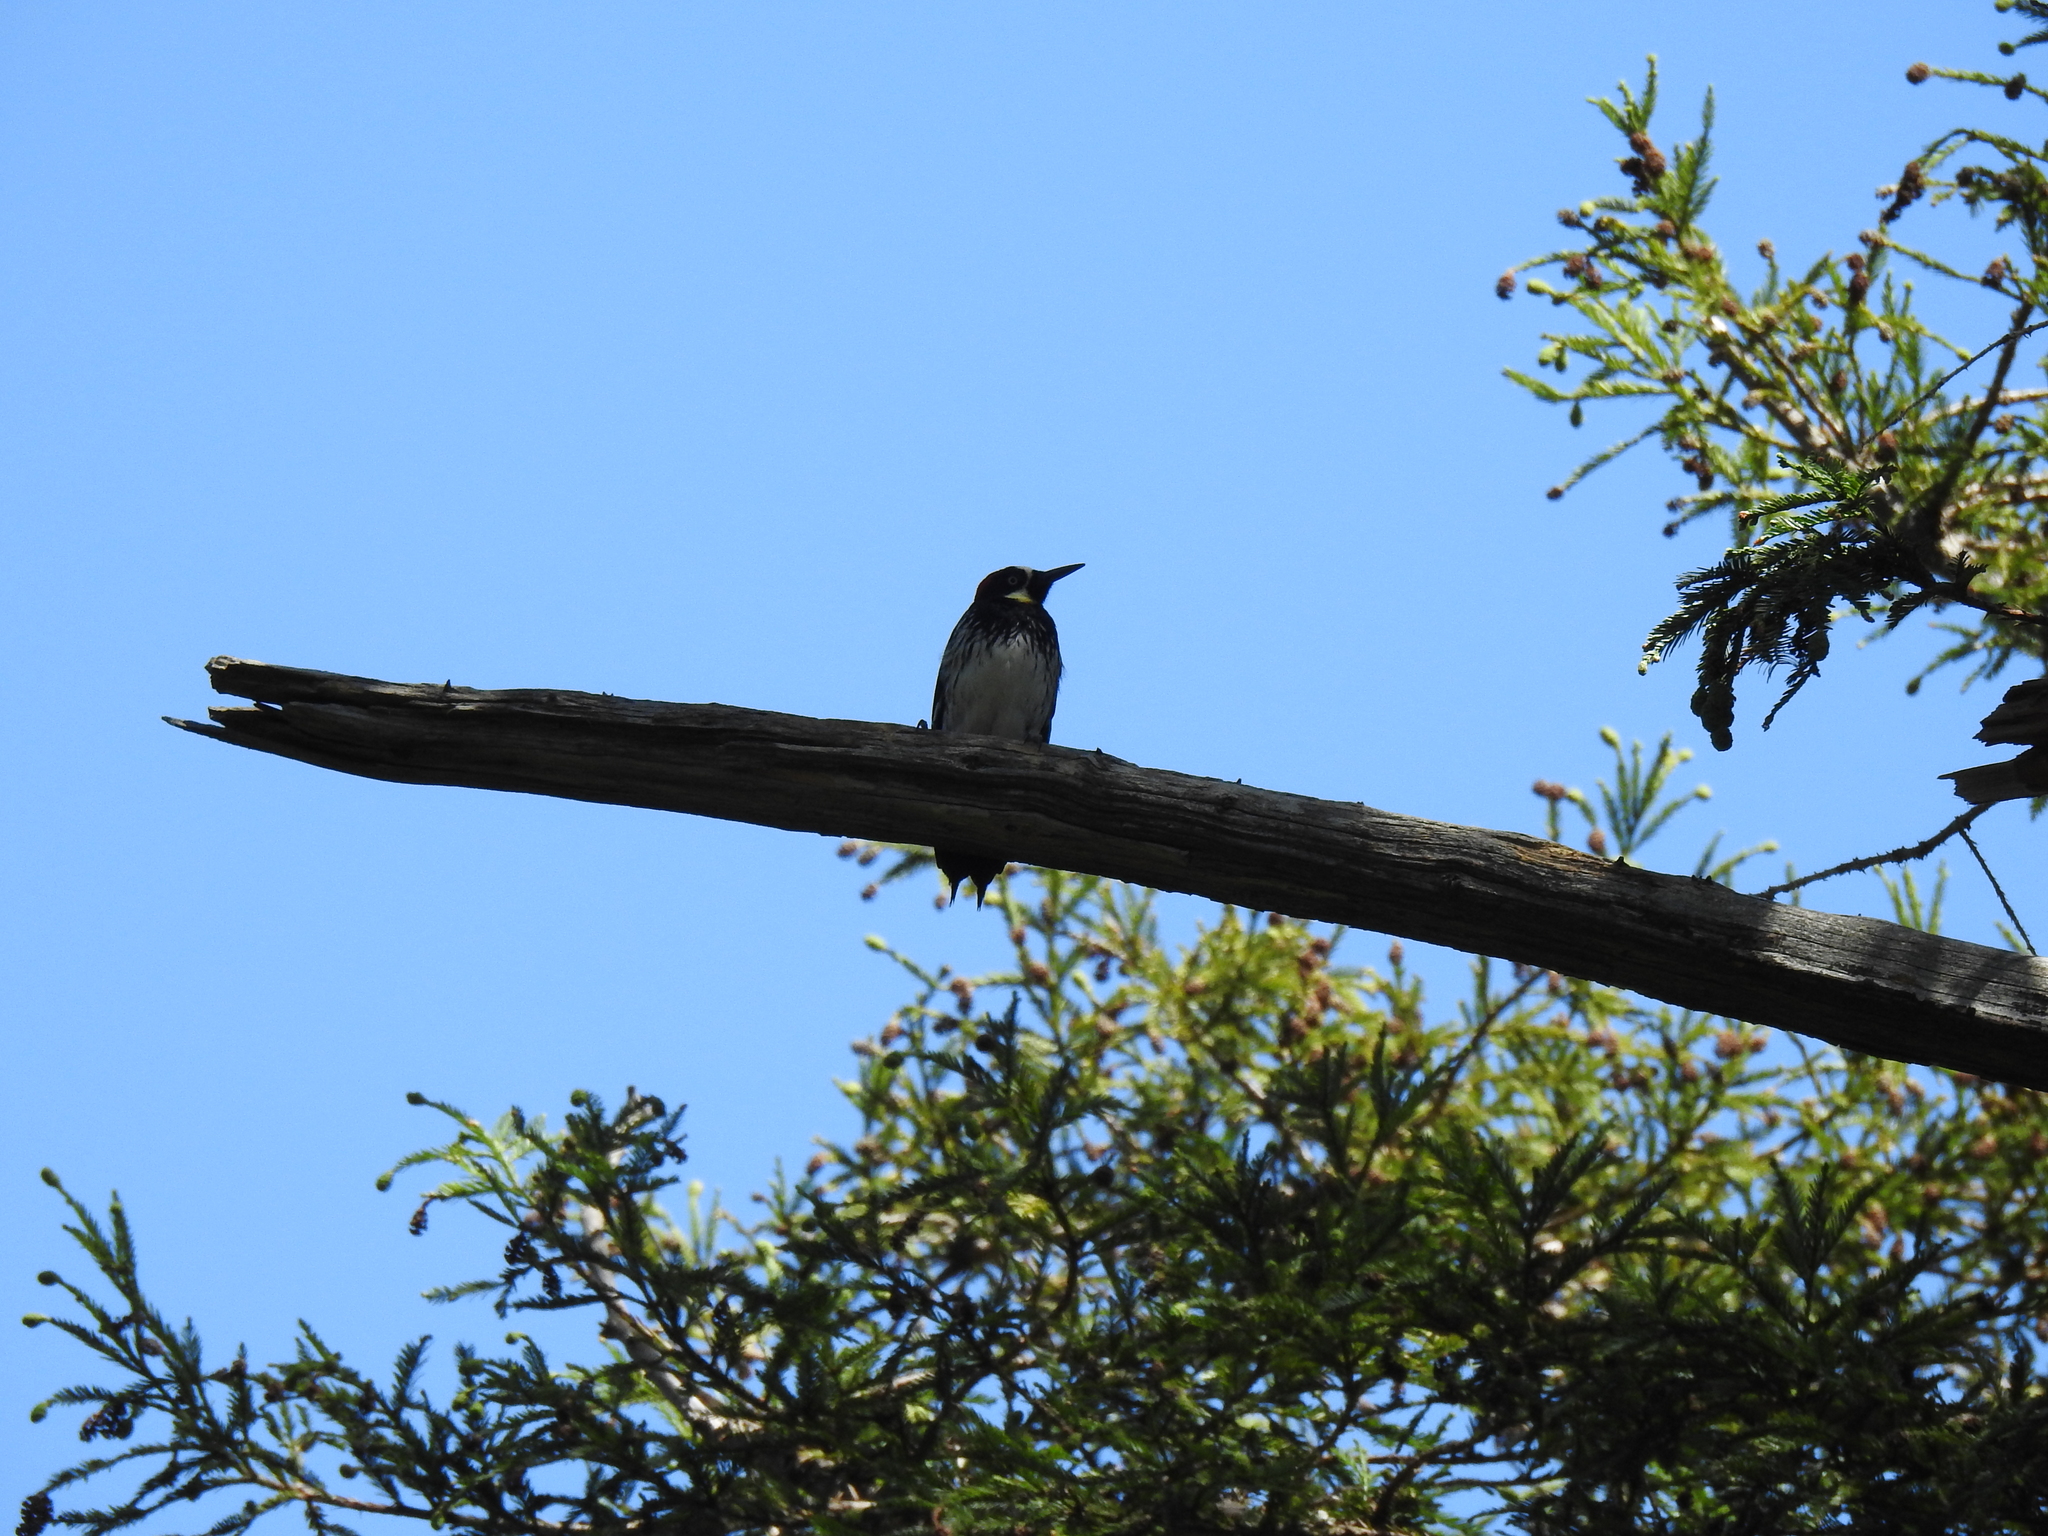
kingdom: Animalia
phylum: Chordata
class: Aves
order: Piciformes
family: Picidae
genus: Melanerpes
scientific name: Melanerpes formicivorus
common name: Acorn woodpecker
